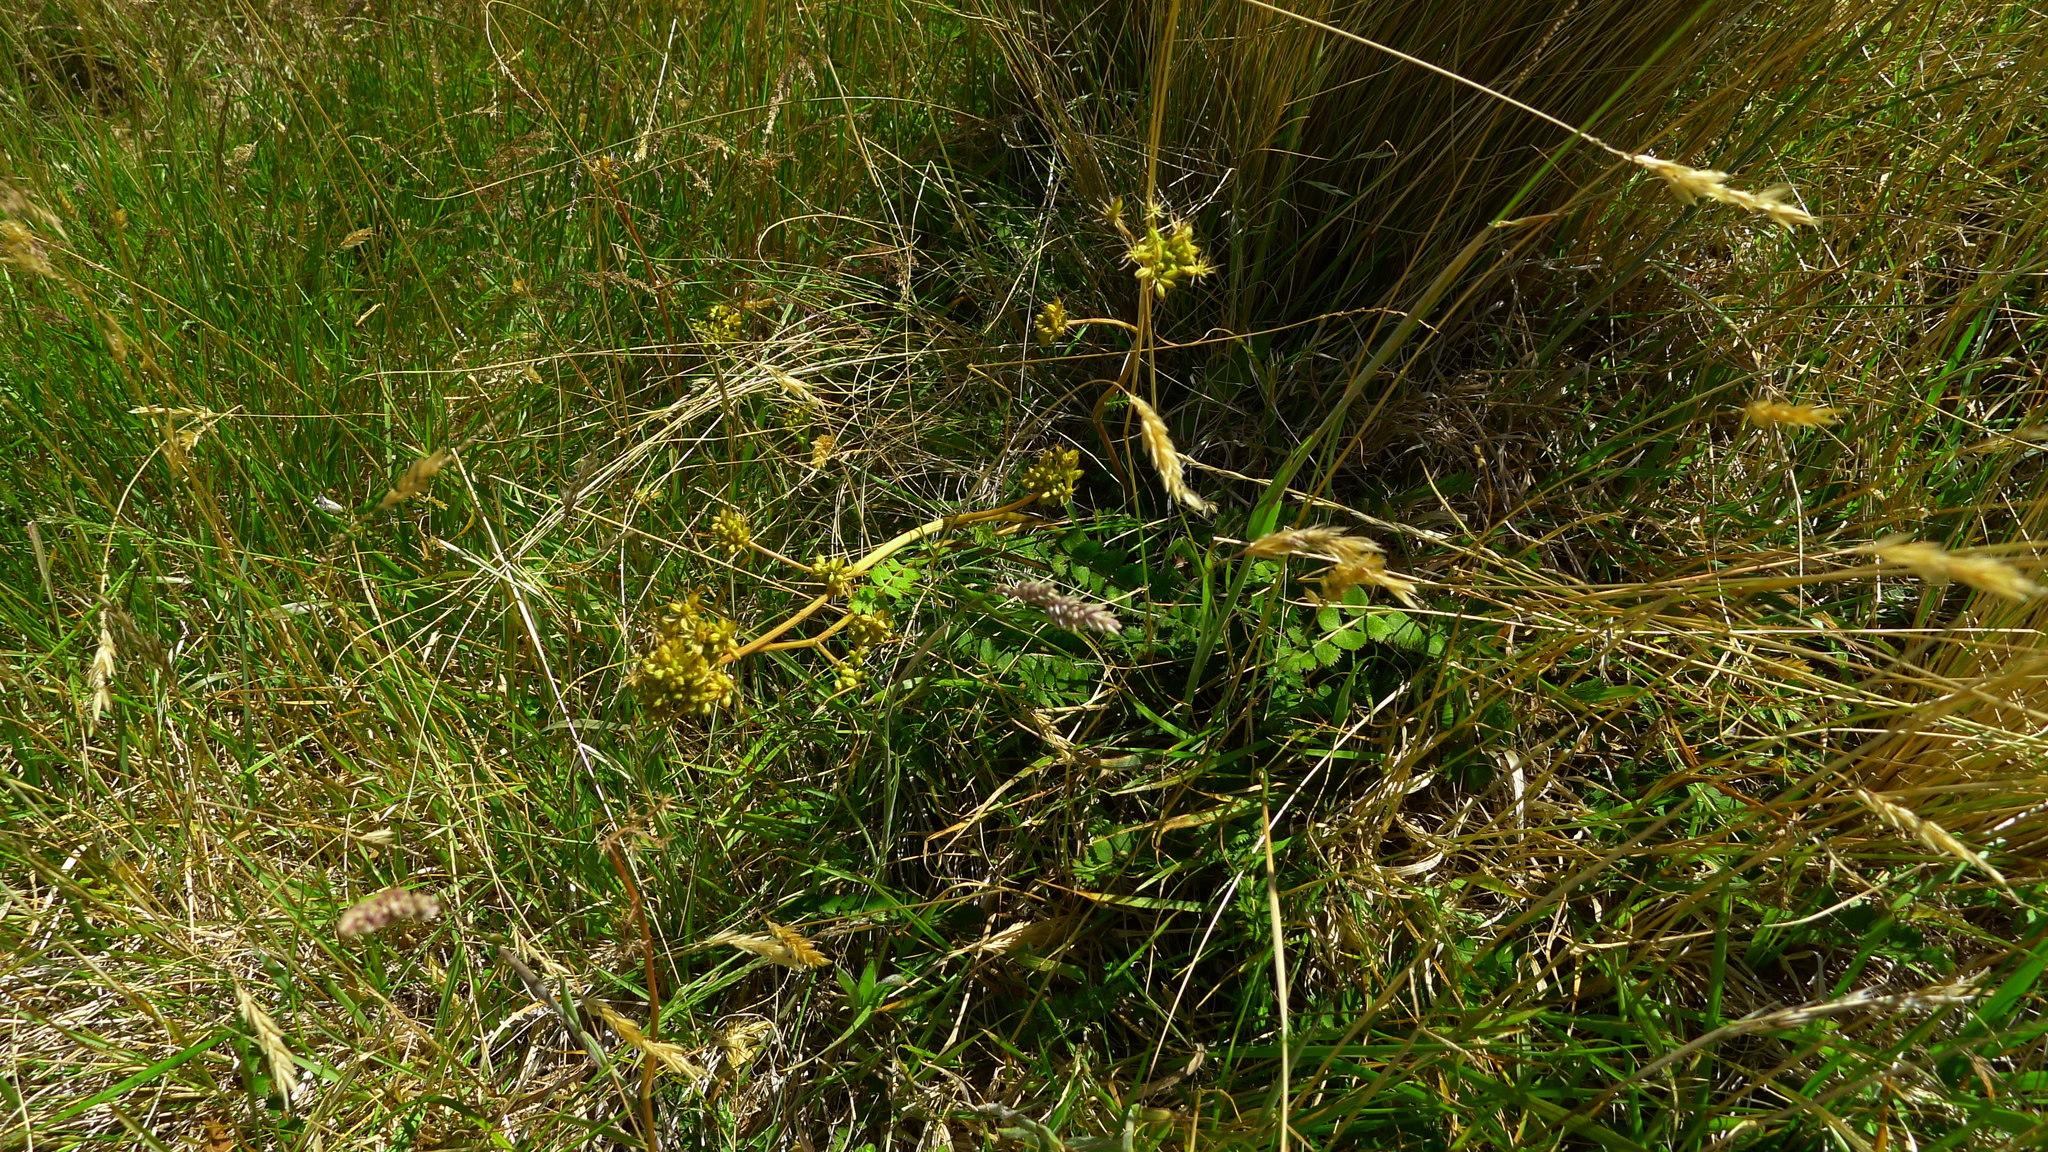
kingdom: Plantae
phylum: Tracheophyta
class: Magnoliopsida
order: Apiales
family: Apiaceae
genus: Anisotome
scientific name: Anisotome aromatica
